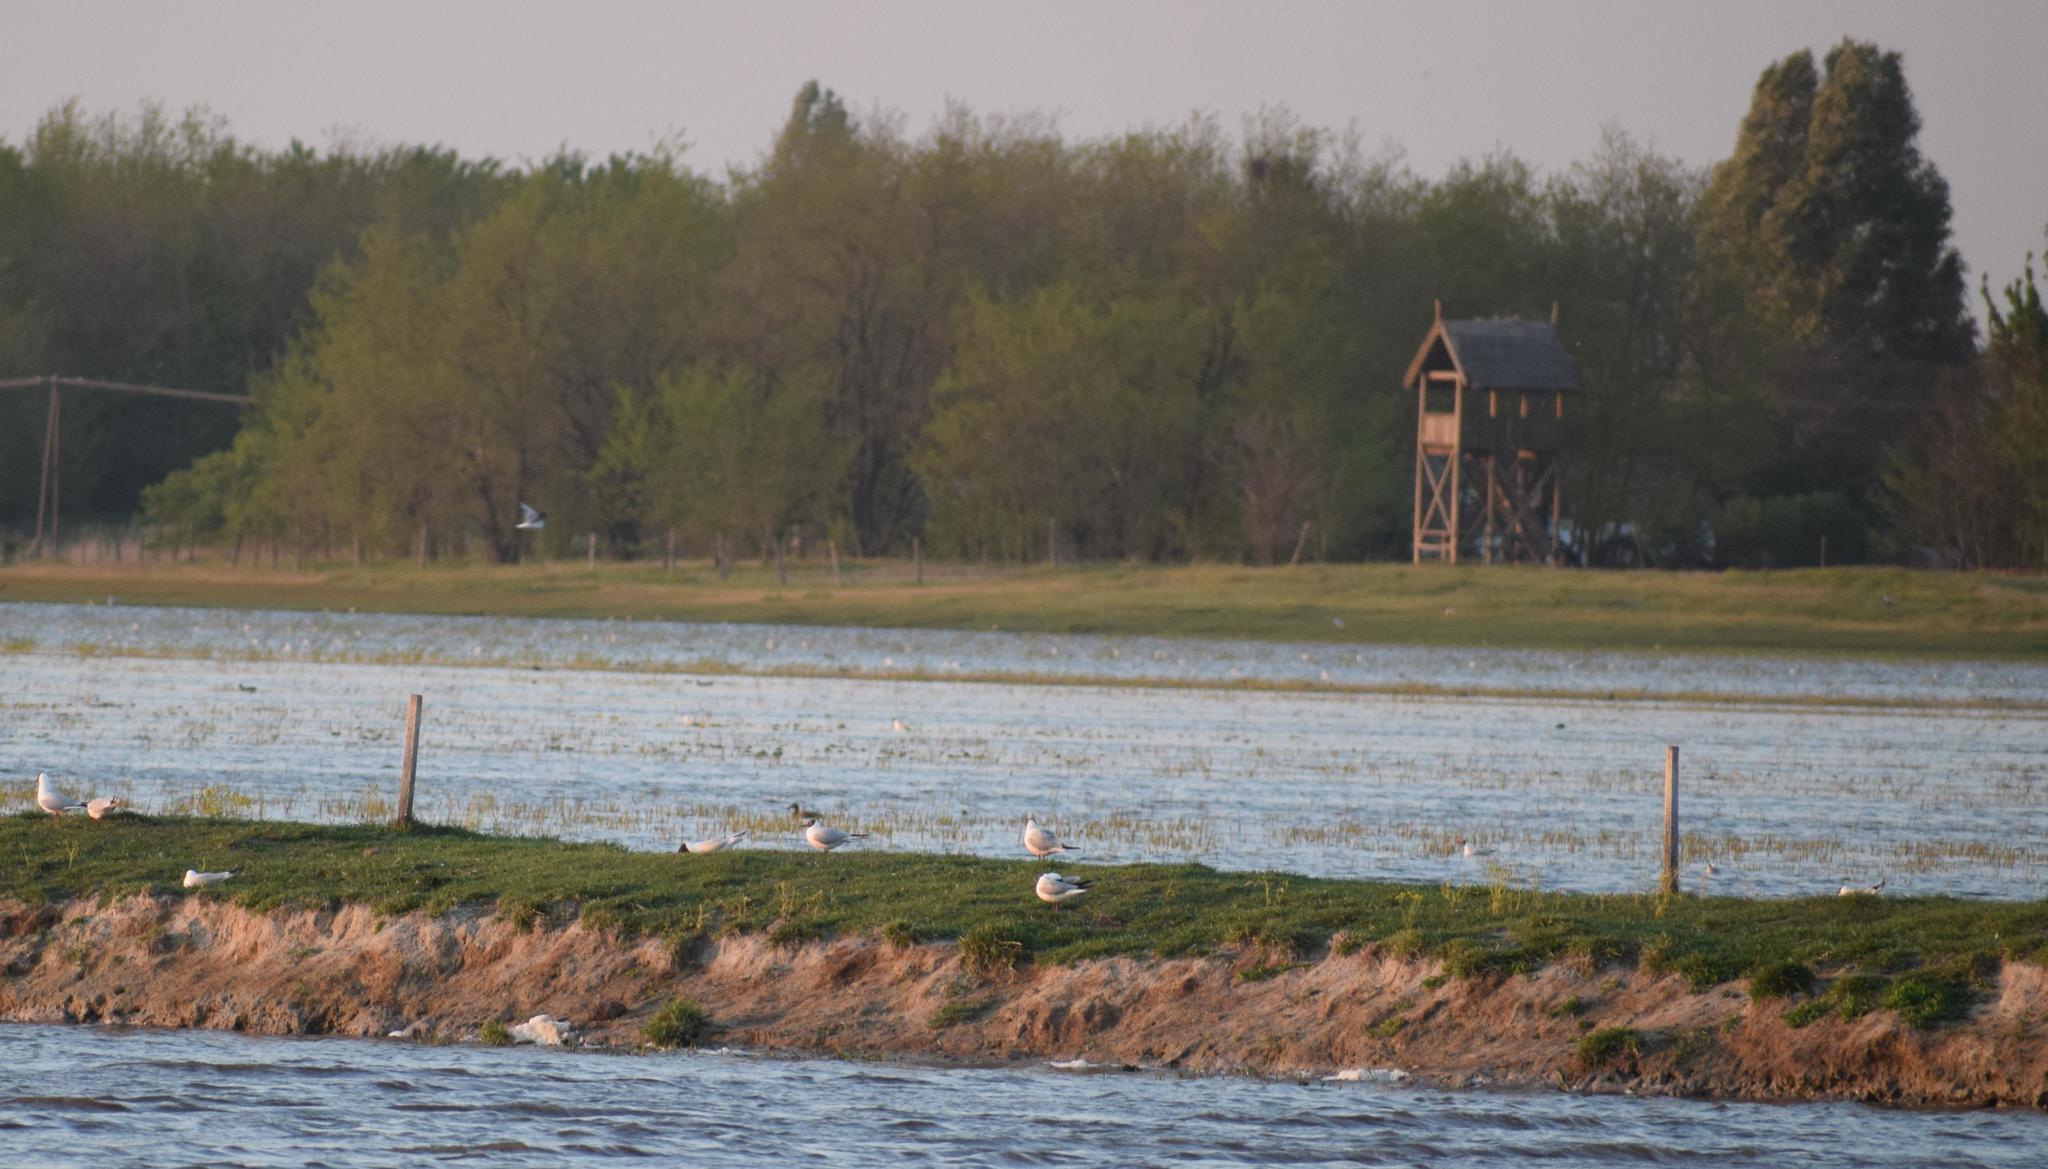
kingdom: Animalia
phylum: Chordata
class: Aves
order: Charadriiformes
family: Laridae
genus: Chroicocephalus
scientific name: Chroicocephalus ridibundus
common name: Black-headed gull
